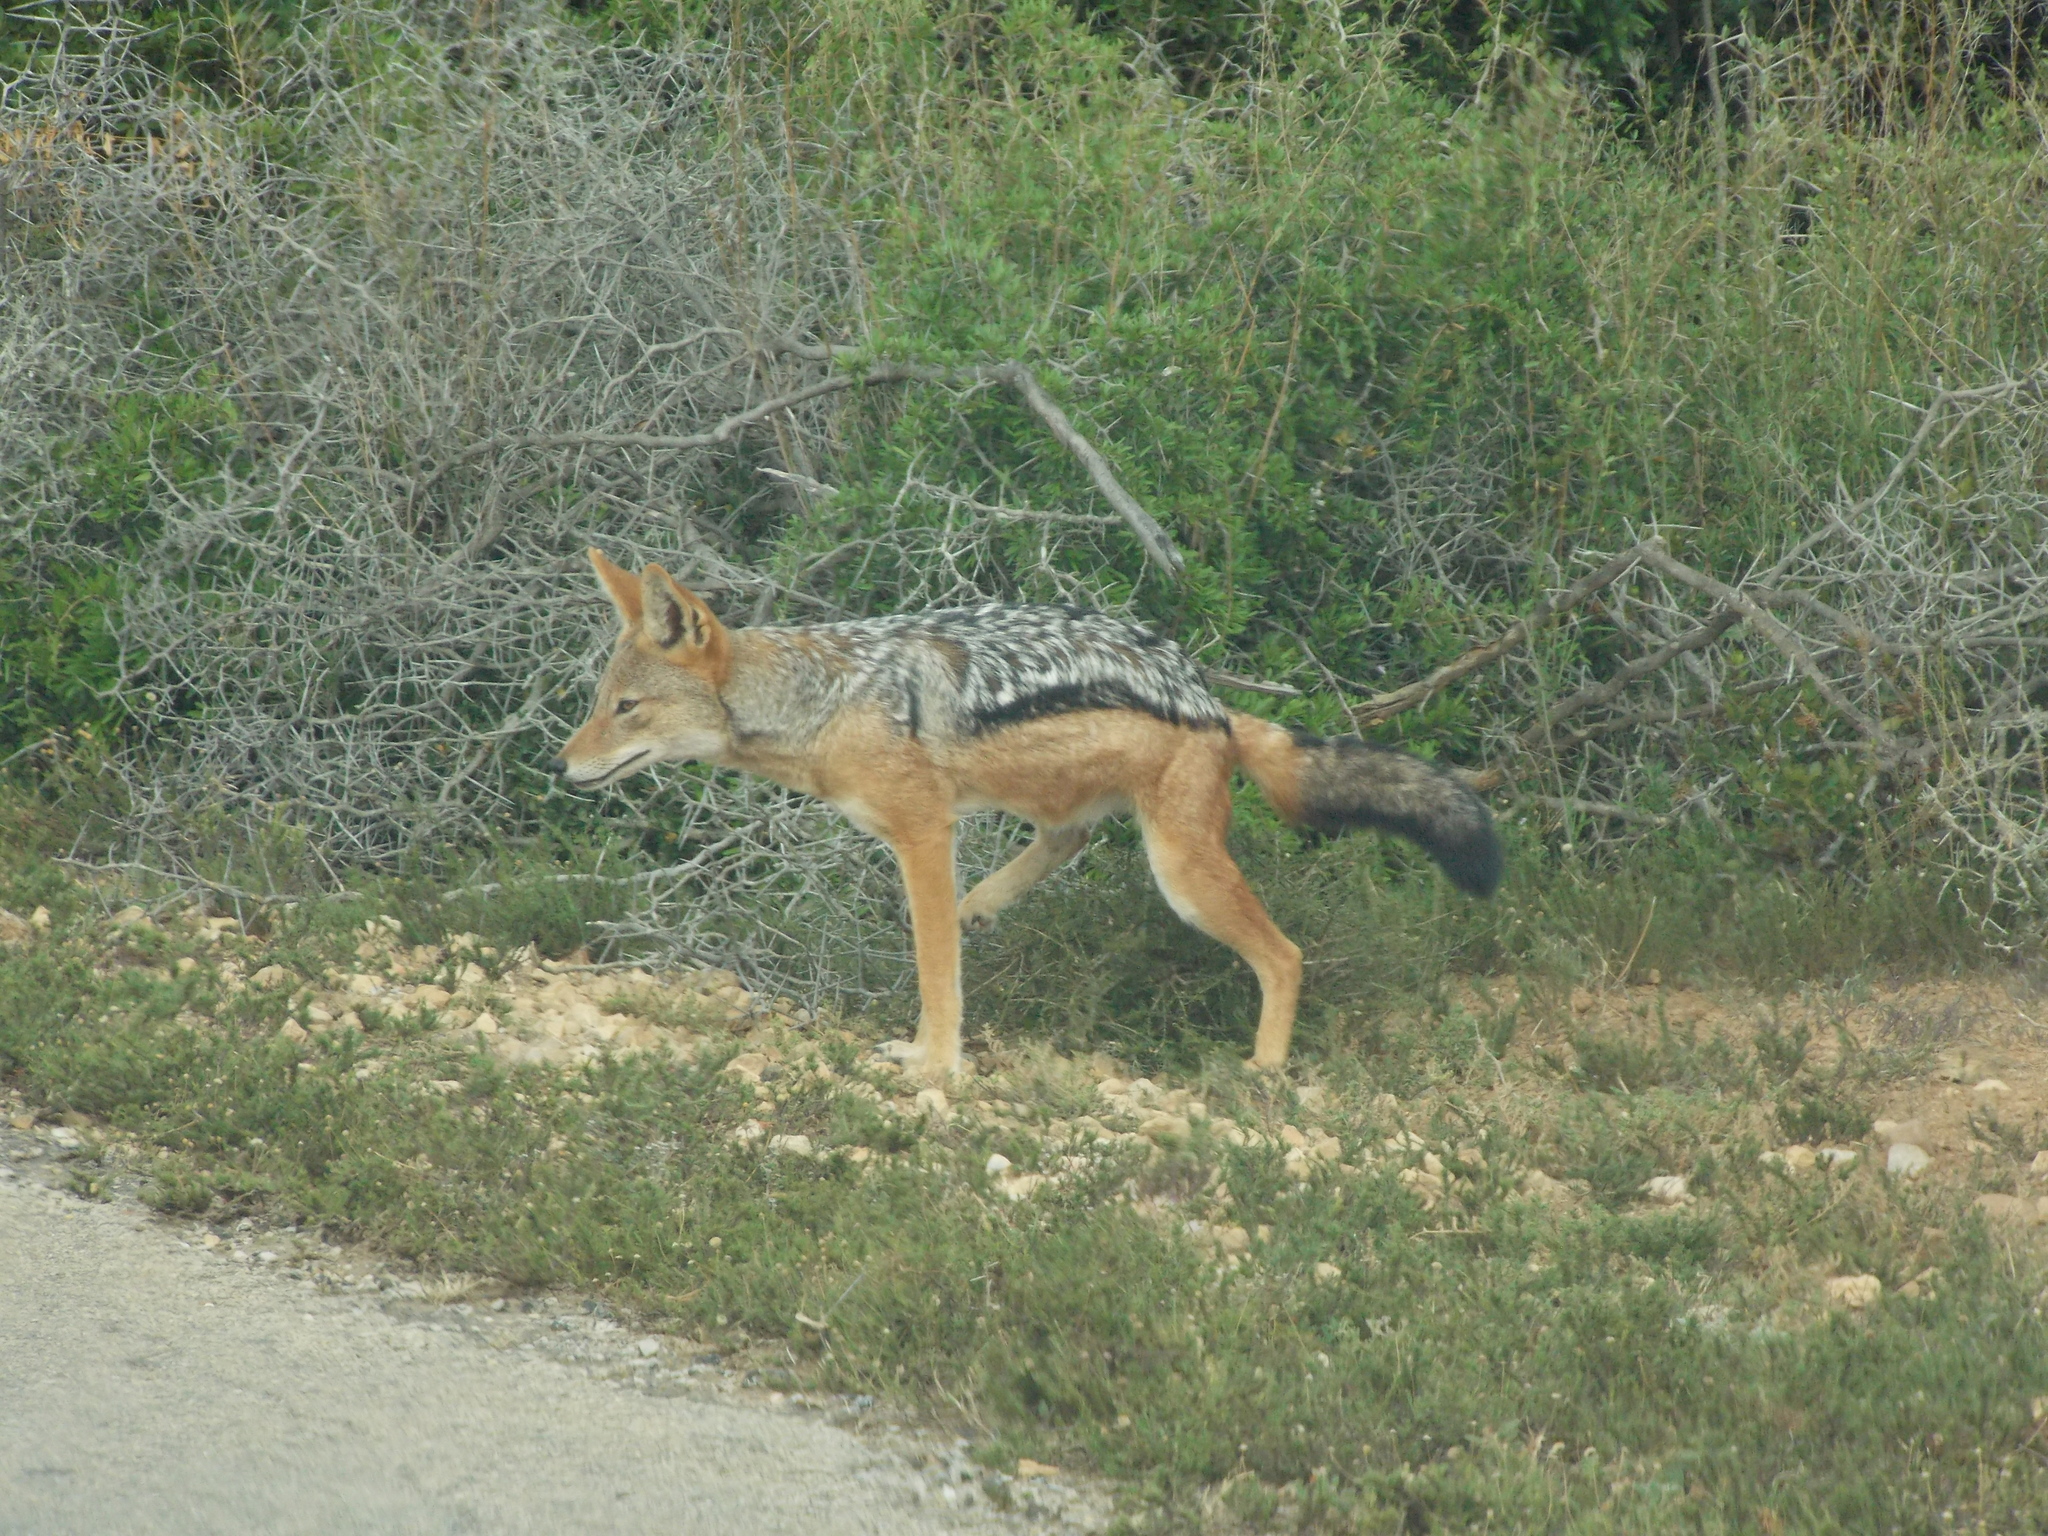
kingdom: Animalia
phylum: Chordata
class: Mammalia
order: Carnivora
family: Canidae
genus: Lupulella
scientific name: Lupulella
